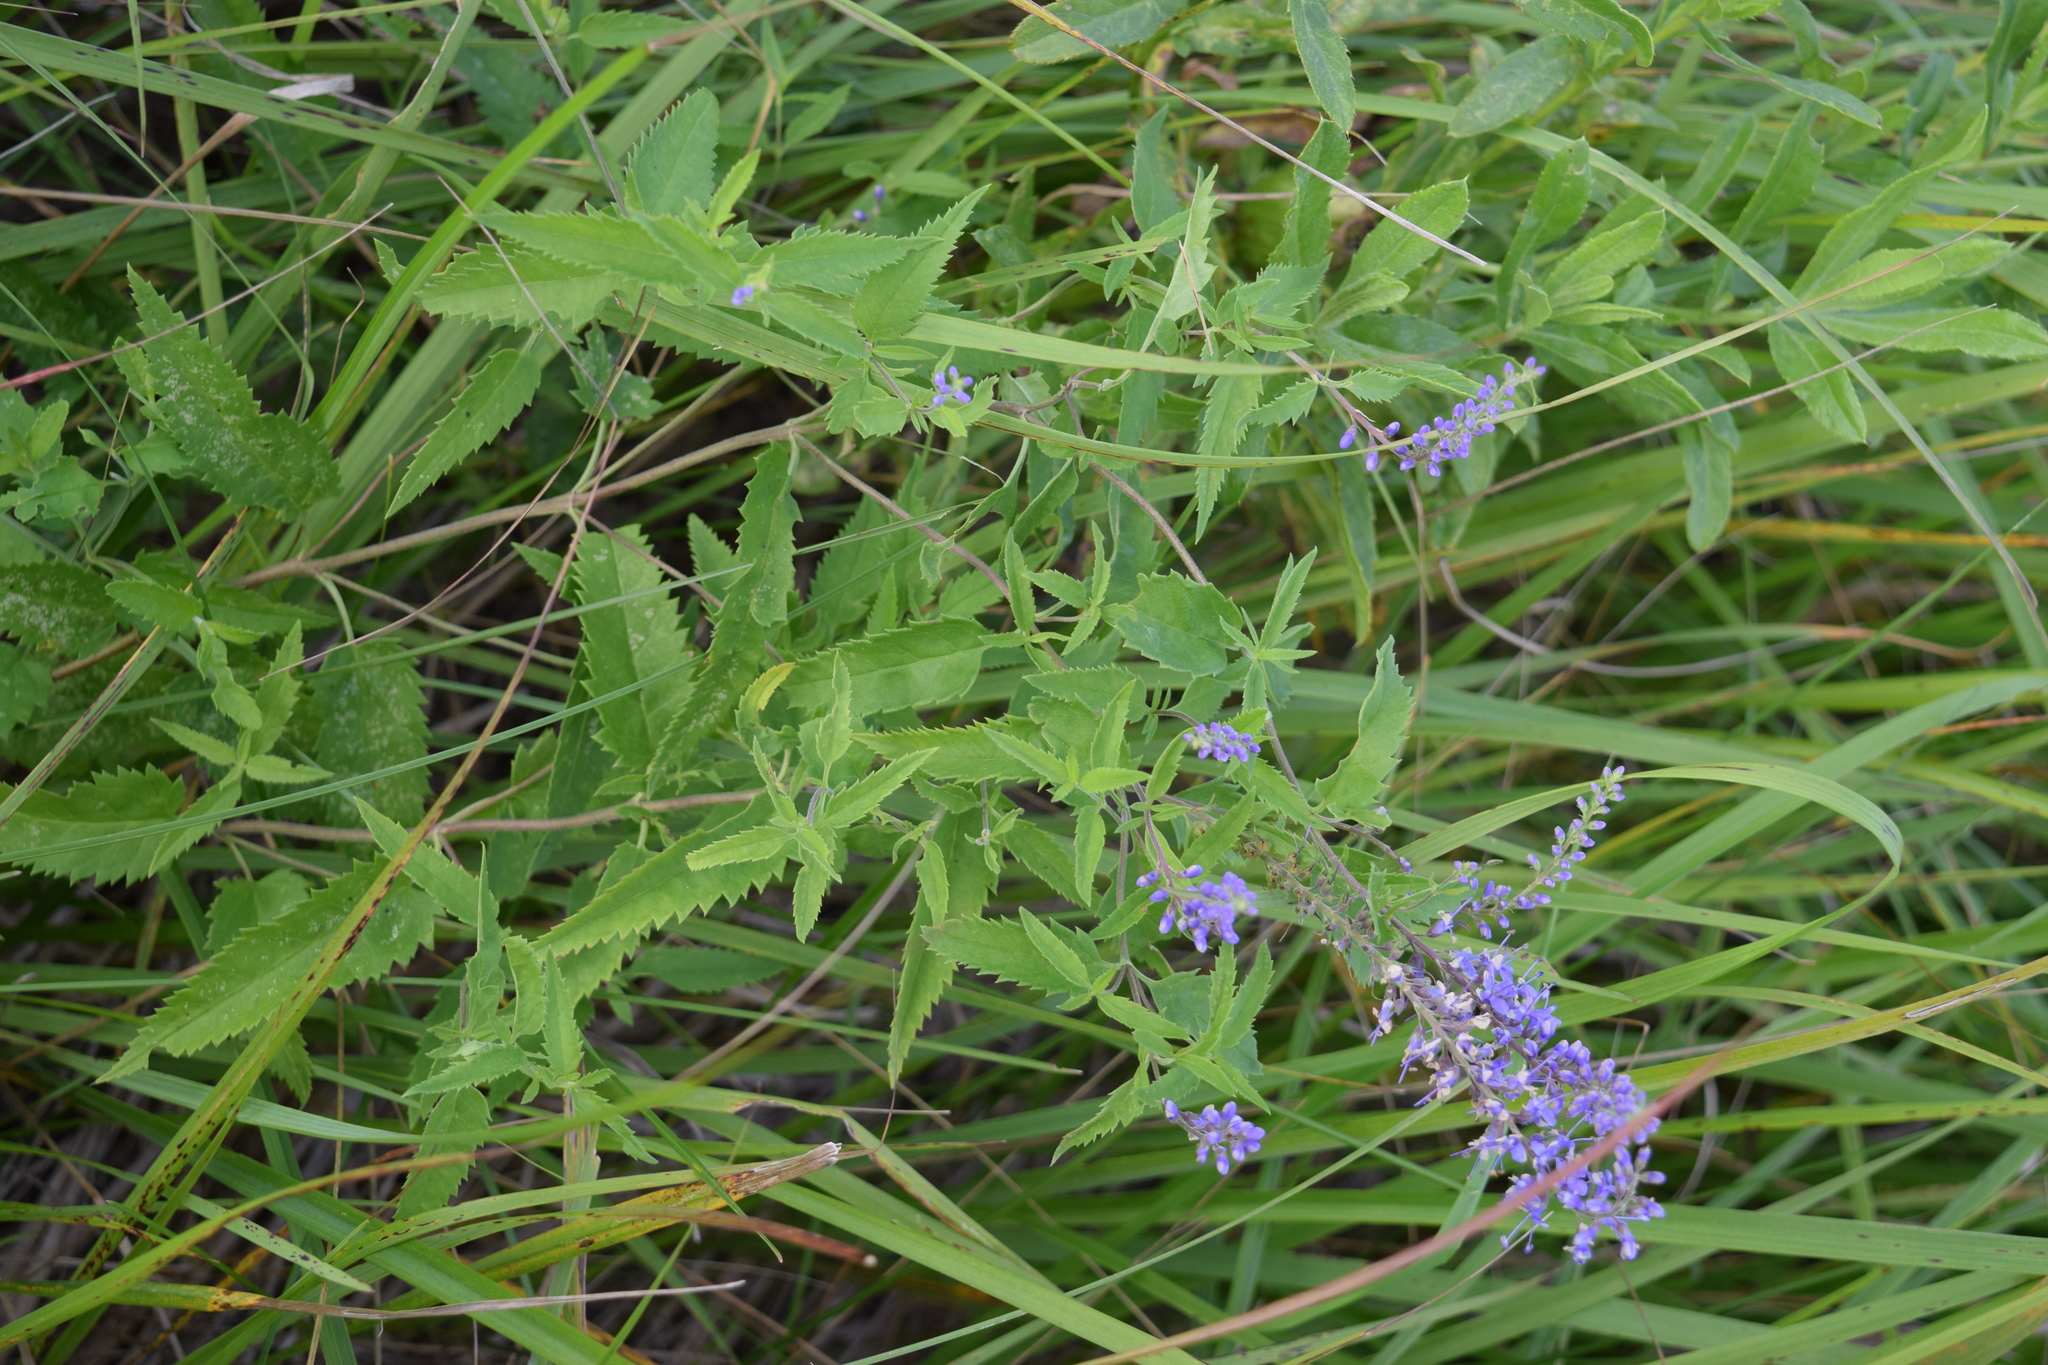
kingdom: Plantae
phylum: Tracheophyta
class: Magnoliopsida
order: Lamiales
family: Plantaginaceae
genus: Veronica
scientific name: Veronica longifolia
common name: Garden speedwell
